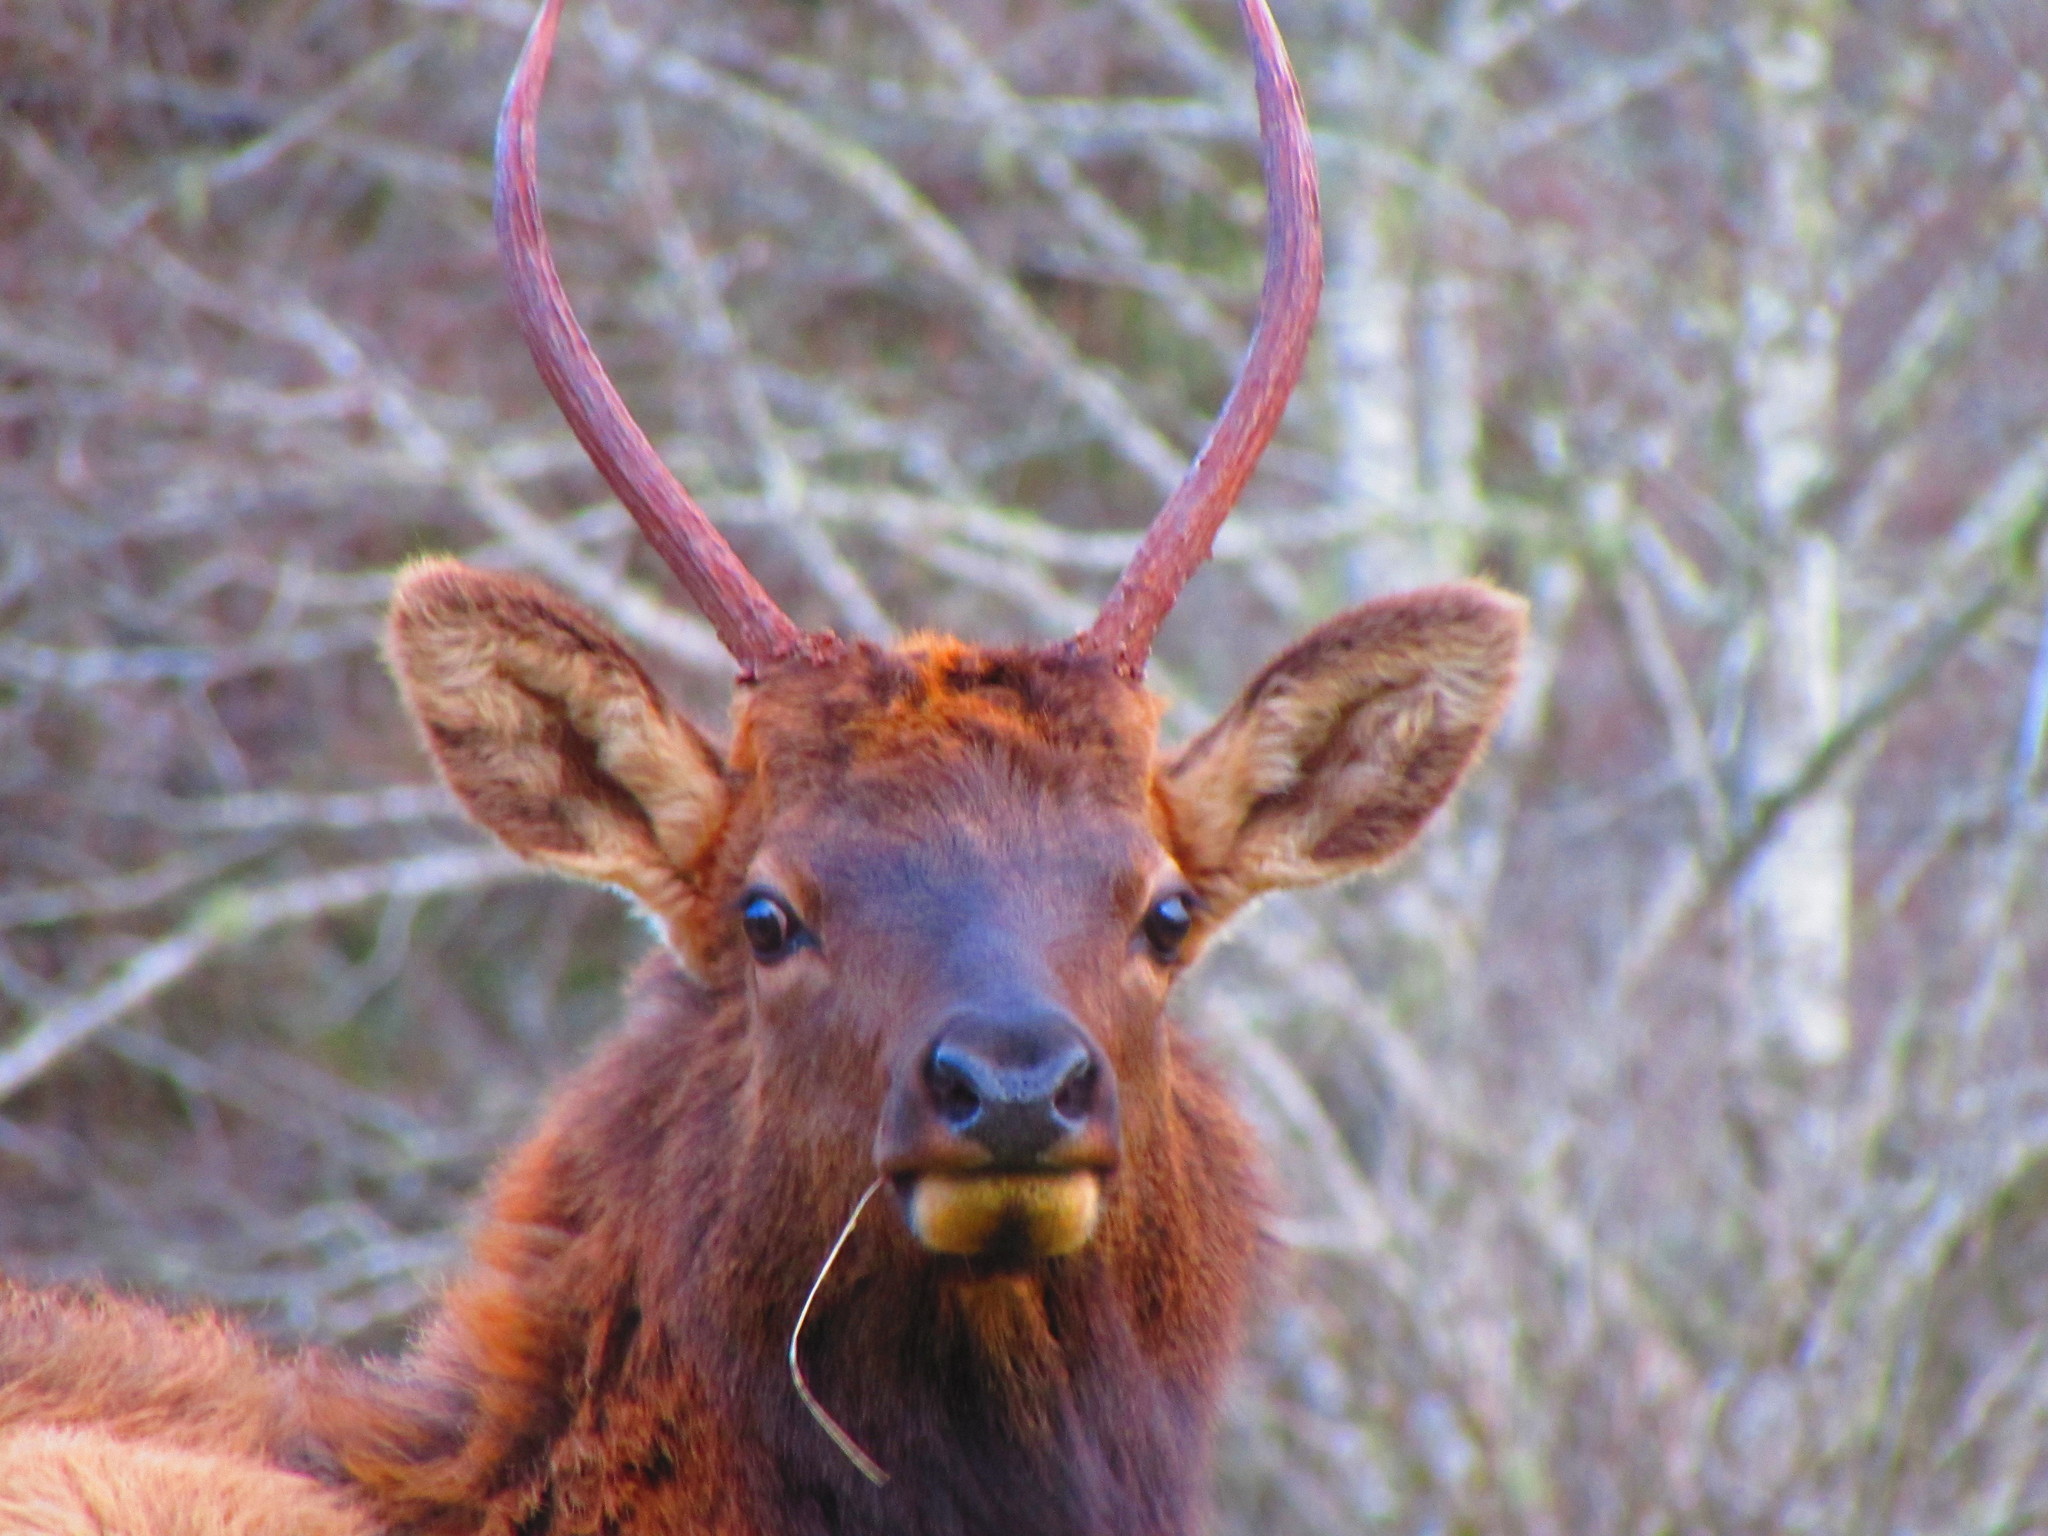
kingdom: Animalia
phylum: Chordata
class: Mammalia
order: Artiodactyla
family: Cervidae
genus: Cervus
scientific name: Cervus elaphus
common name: Red deer
